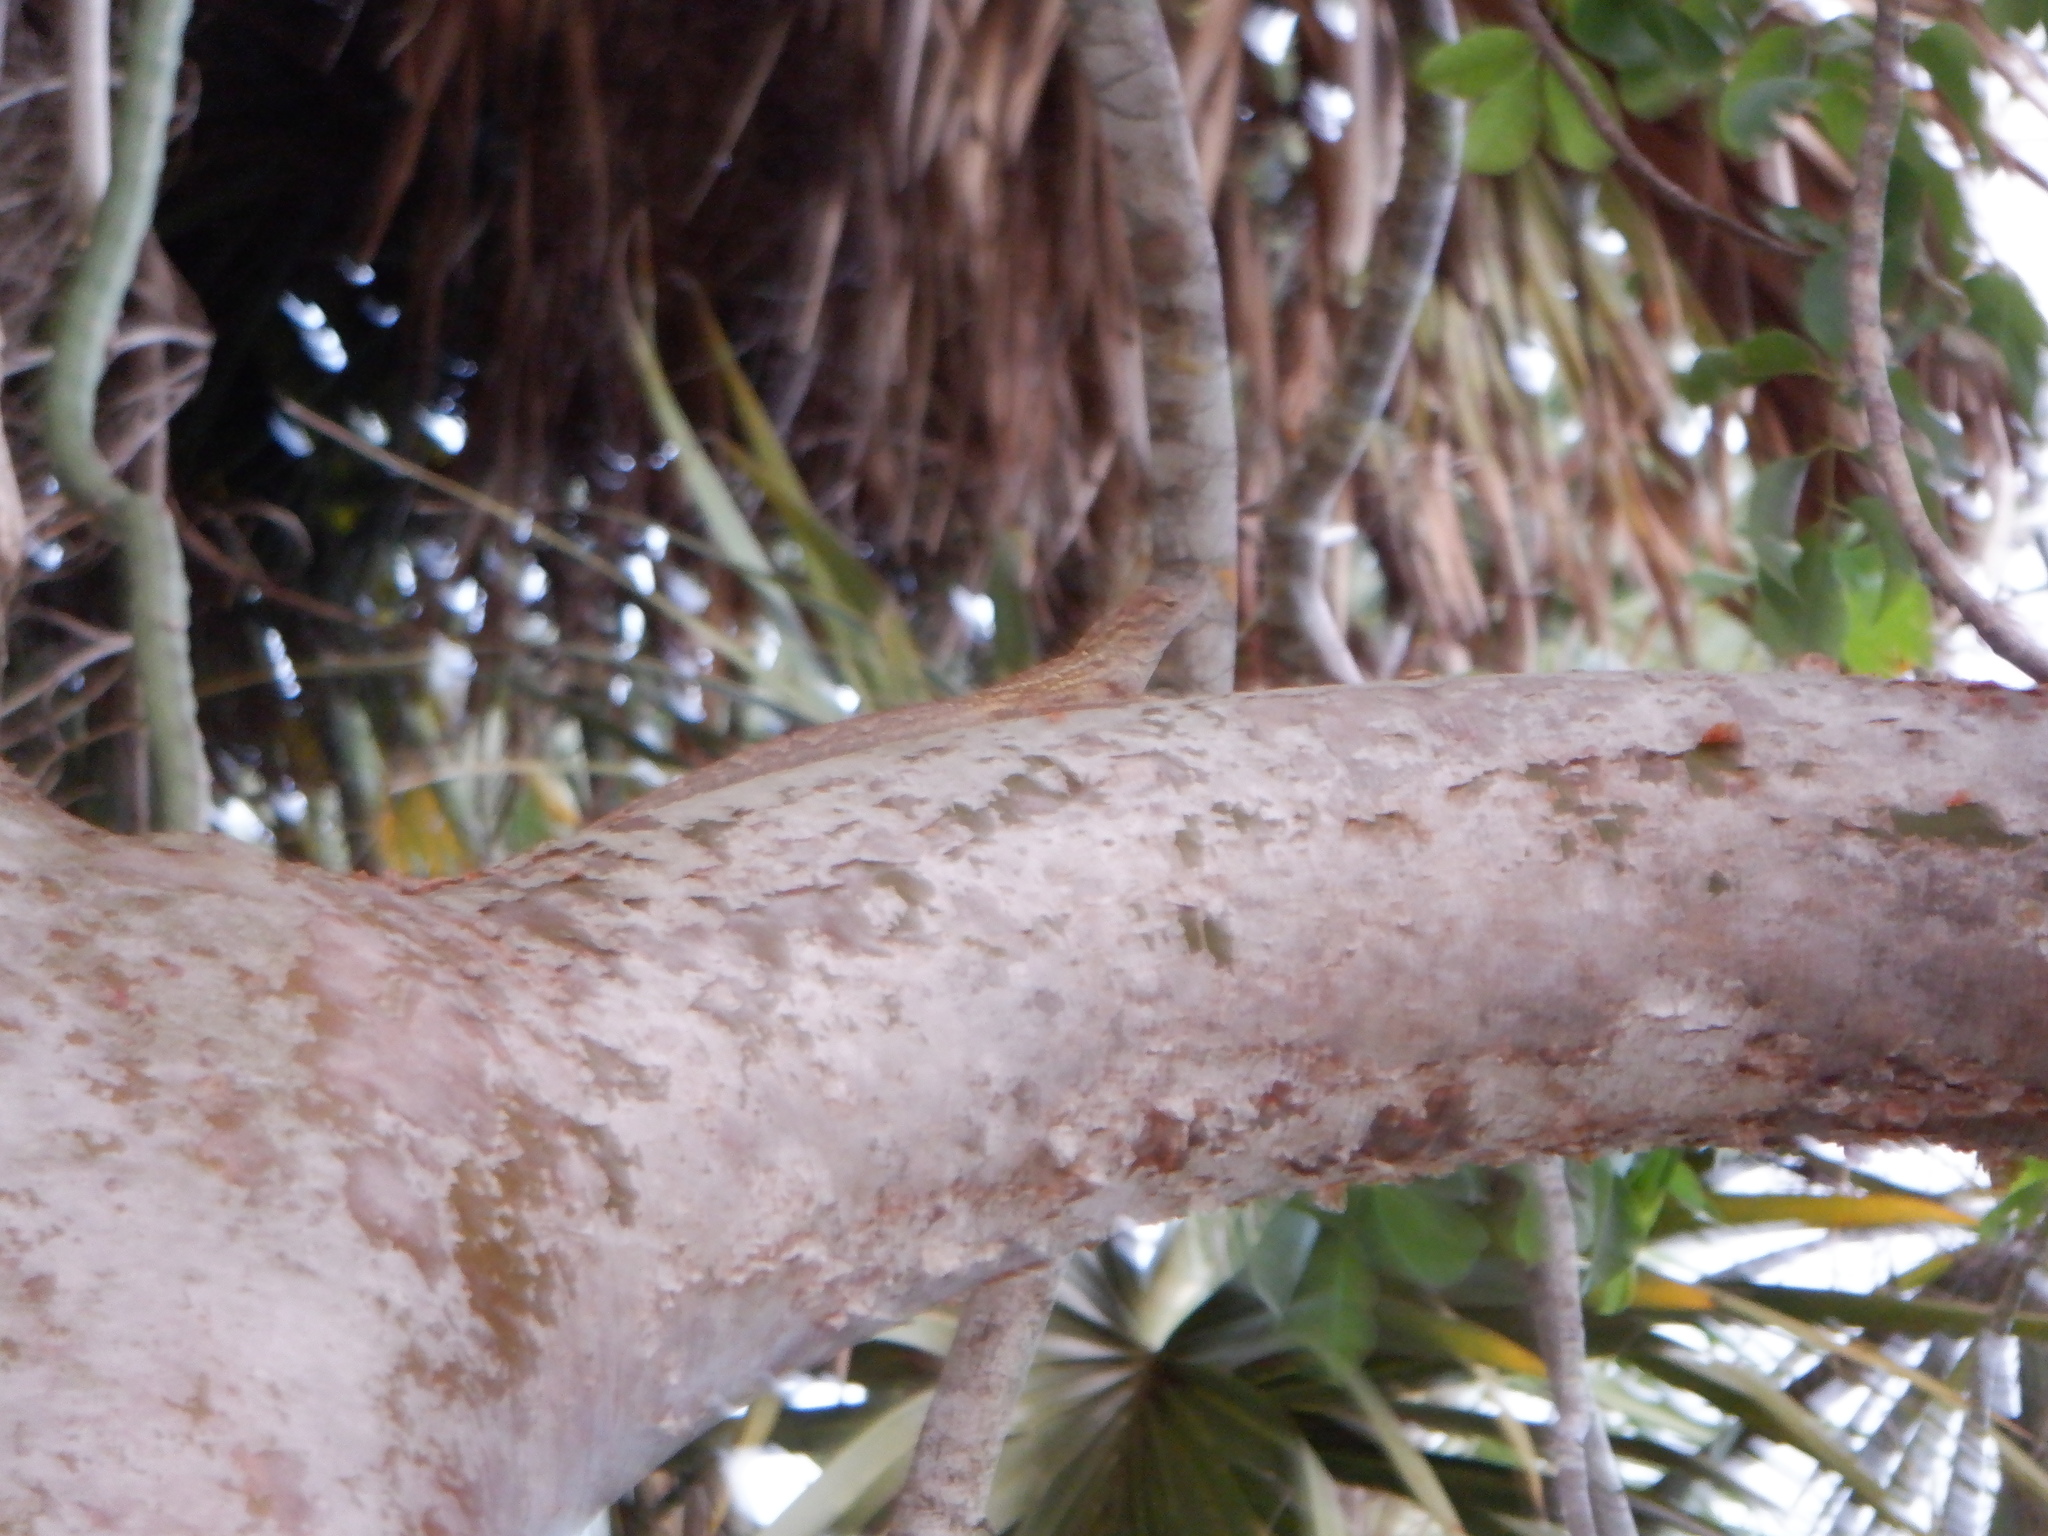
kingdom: Animalia
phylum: Chordata
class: Squamata
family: Dactyloidae
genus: Anolis
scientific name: Anolis sagrei
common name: Brown anole
